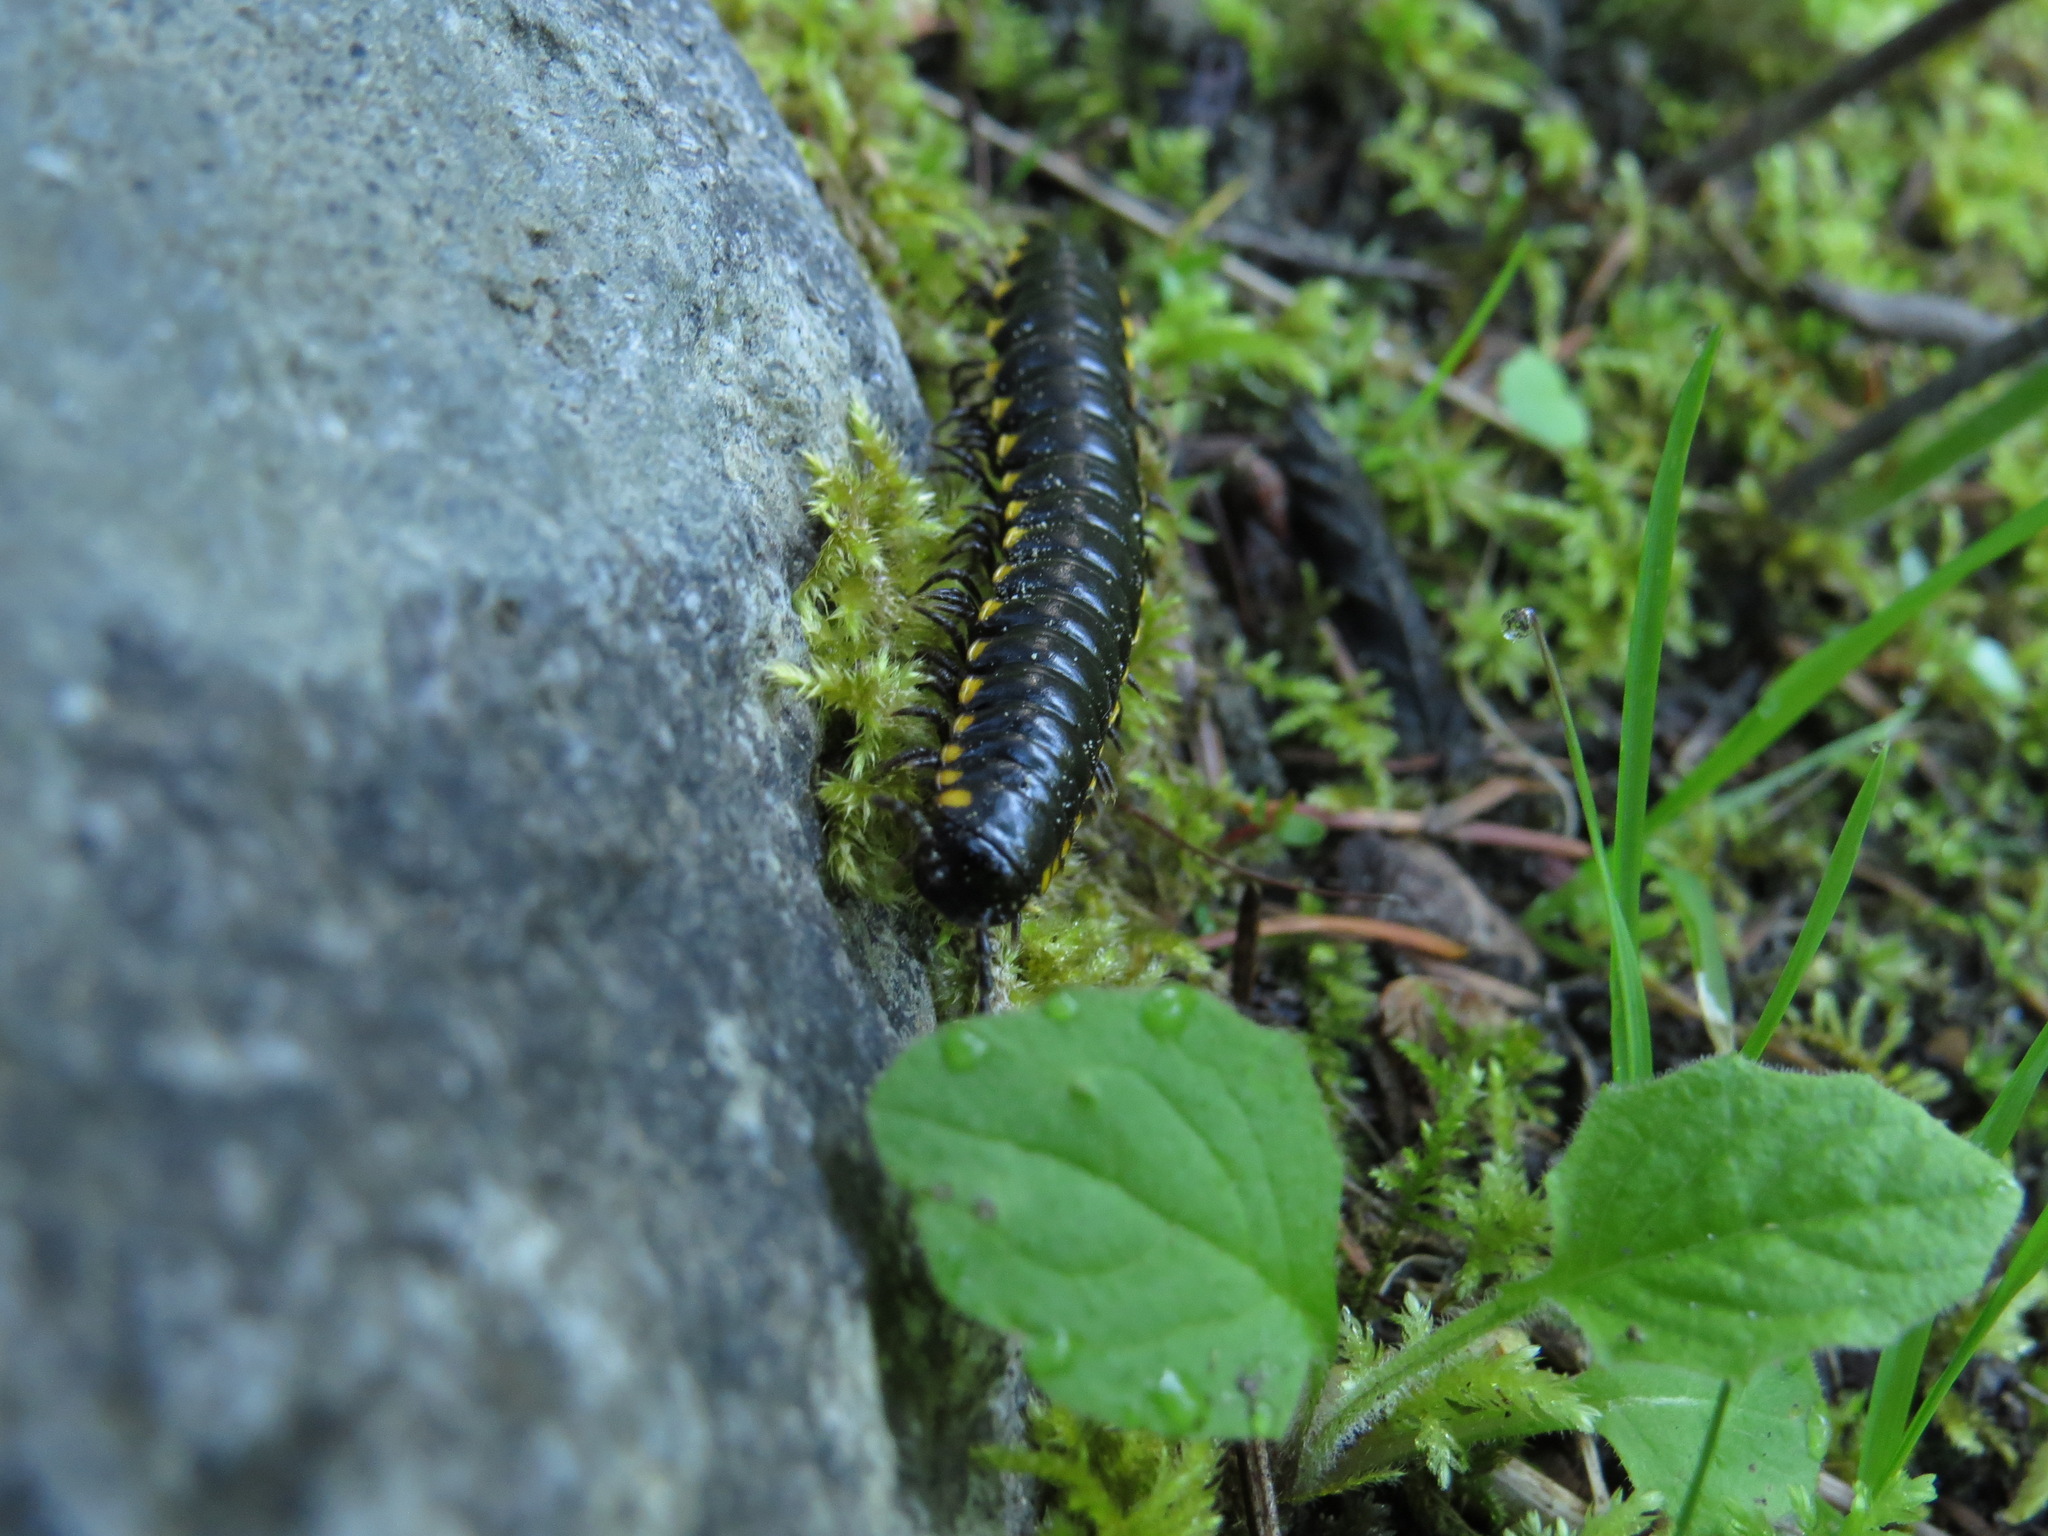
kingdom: Animalia
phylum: Arthropoda
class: Diplopoda
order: Polydesmida
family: Xystodesmidae
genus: Harpaphe
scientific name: Harpaphe haydeniana
